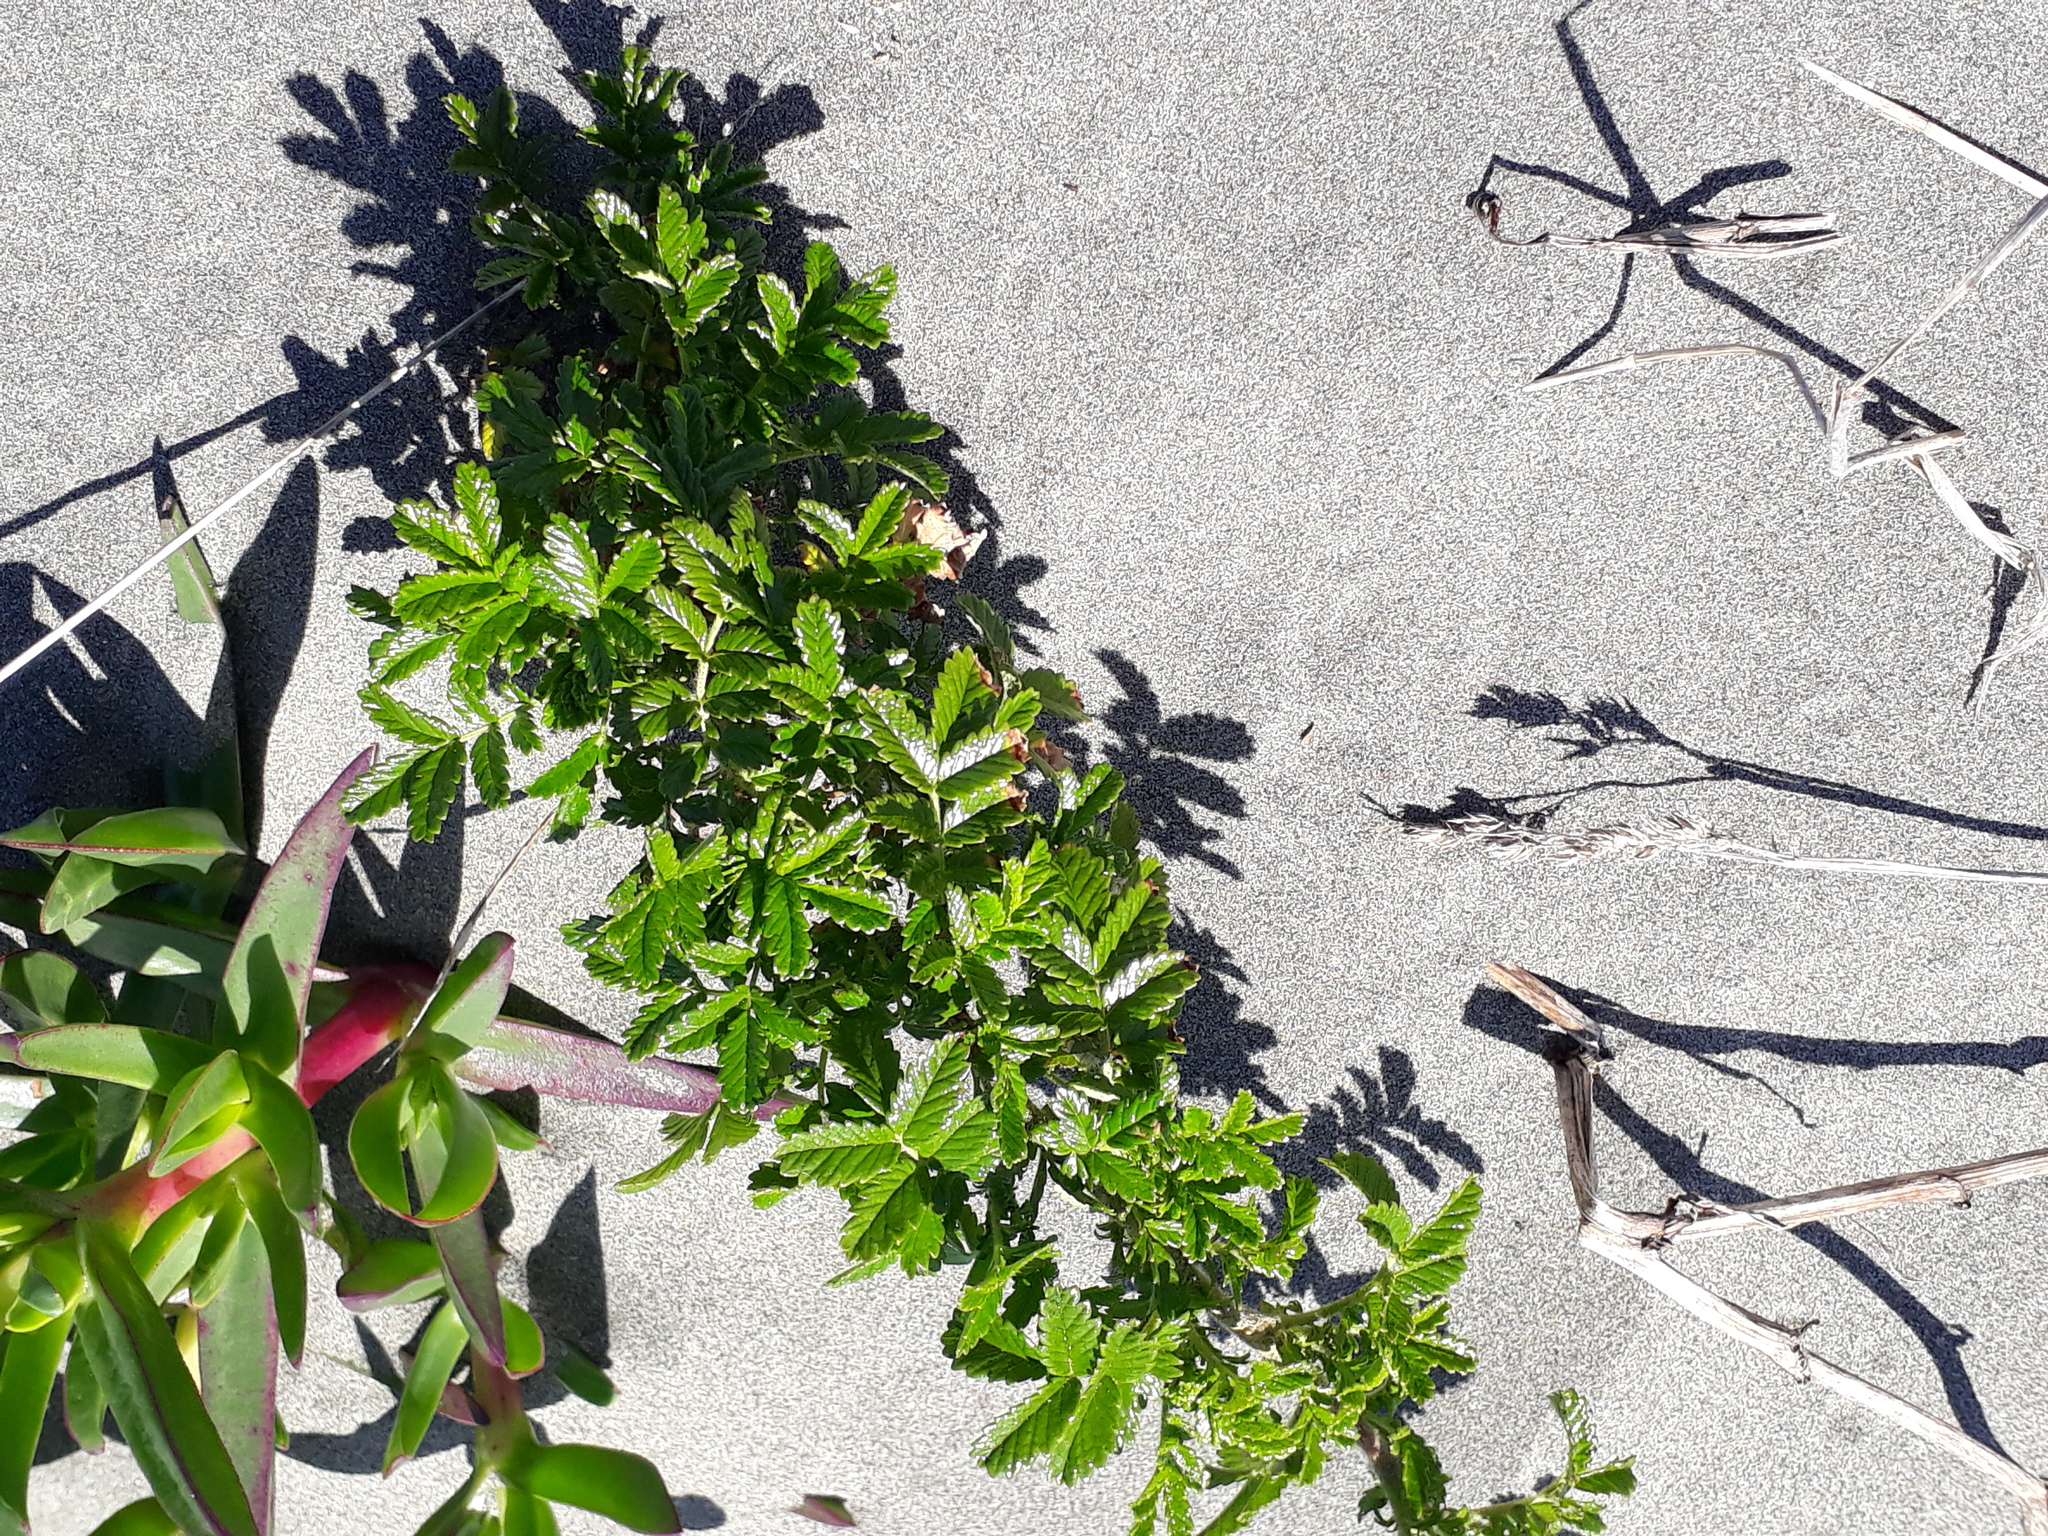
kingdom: Plantae
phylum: Tracheophyta
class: Magnoliopsida
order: Rosales
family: Rosaceae
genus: Acaena
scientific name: Acaena novae-zelandiae
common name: Pirri-pirri-bur
